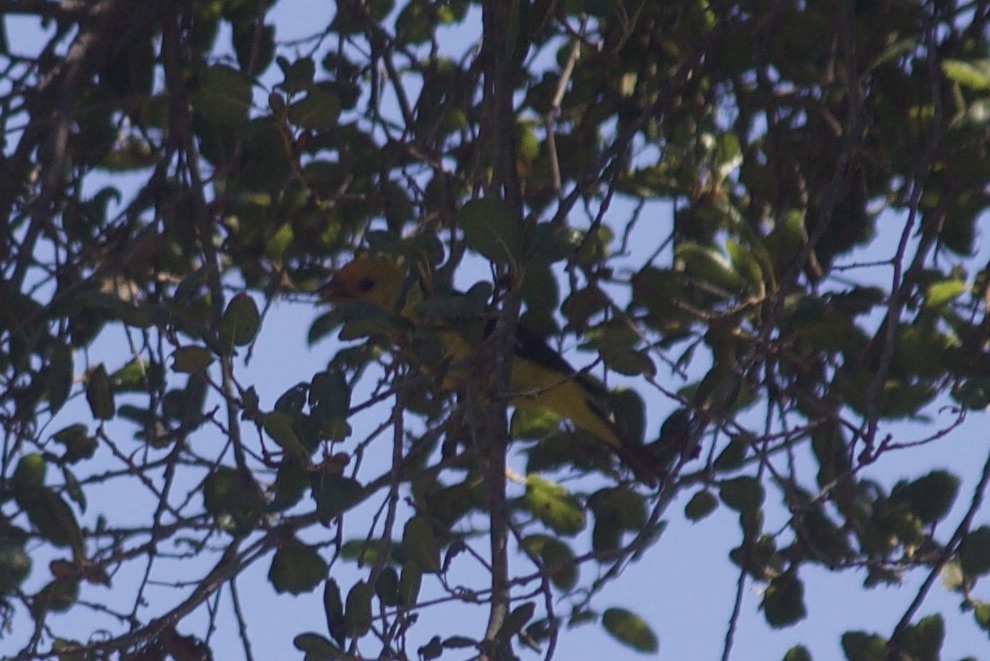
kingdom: Animalia
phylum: Chordata
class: Aves
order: Passeriformes
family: Cardinalidae
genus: Piranga
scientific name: Piranga ludoviciana
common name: Western tanager
